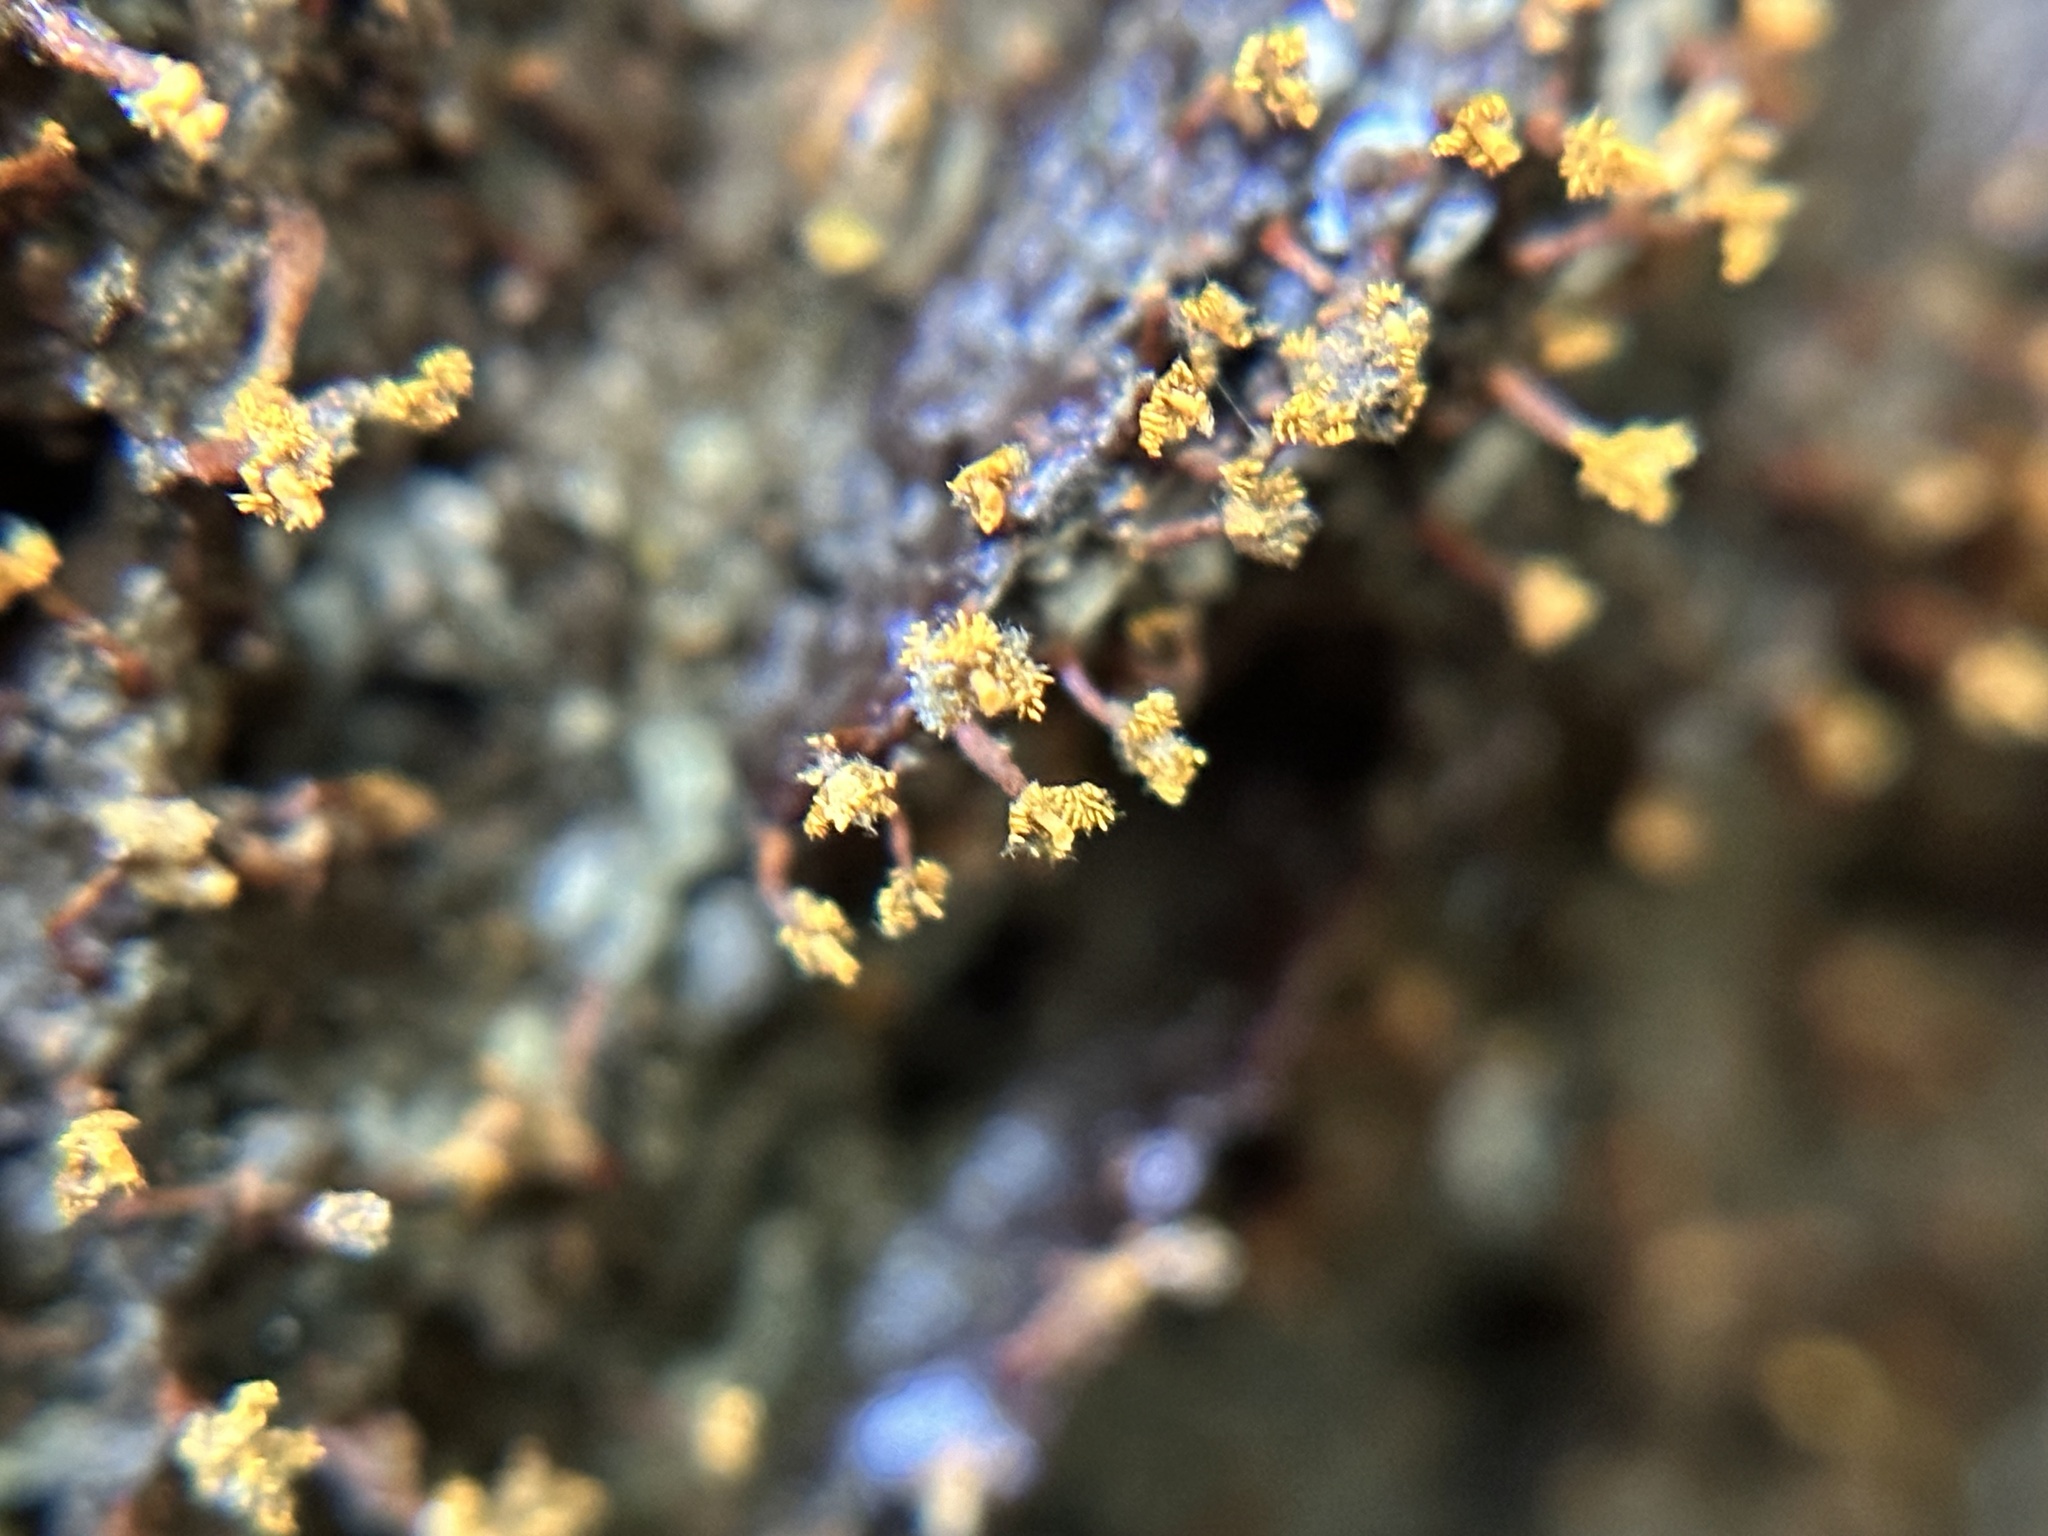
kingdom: Protozoa
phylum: Mycetozoa
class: Myxomycetes
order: Physarales
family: Physaraceae
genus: Physarella
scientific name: Physarella oblonga
